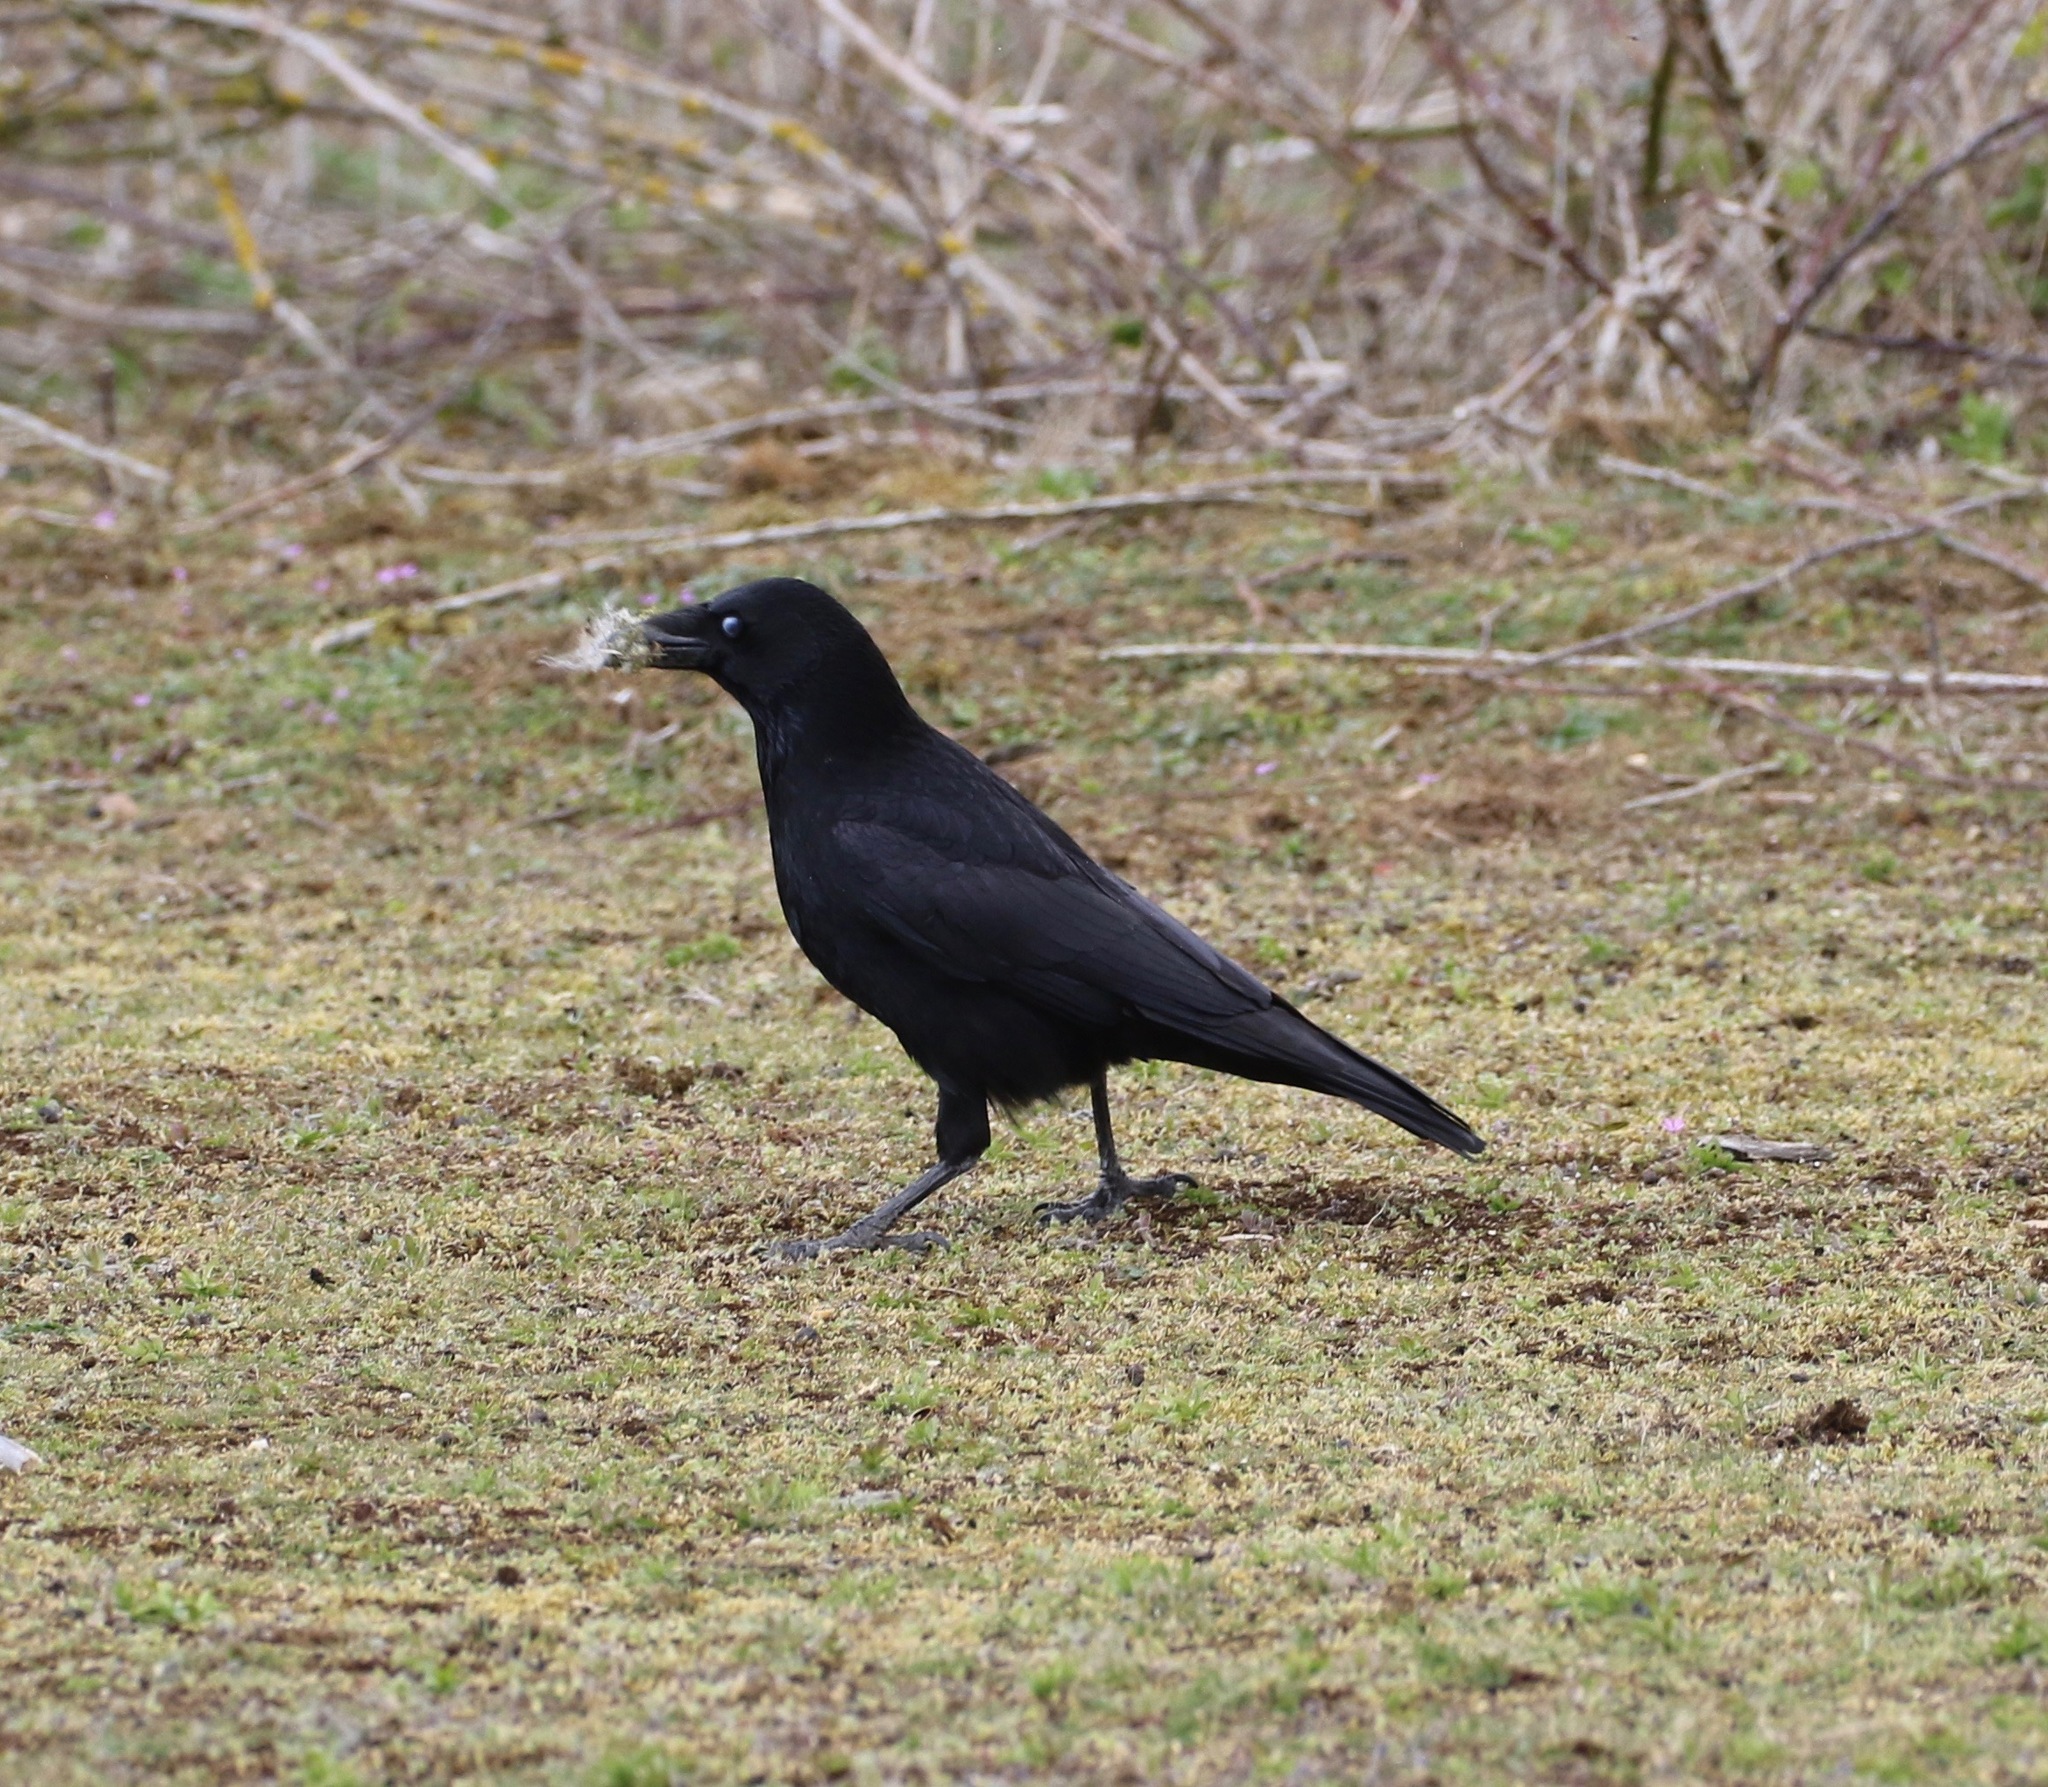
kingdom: Animalia
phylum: Chordata
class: Aves
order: Passeriformes
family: Corvidae
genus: Corvus
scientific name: Corvus corone
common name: Carrion crow
